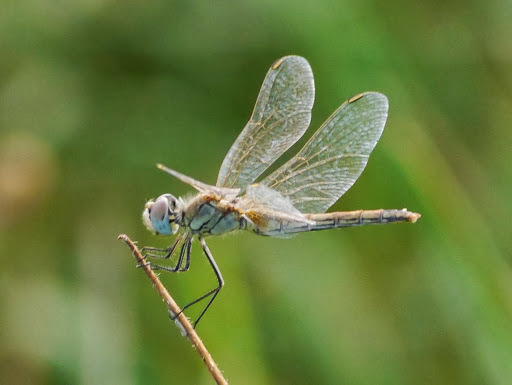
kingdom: Animalia
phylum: Arthropoda
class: Insecta
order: Odonata
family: Libellulidae
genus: Sympetrum
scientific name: Sympetrum fonscolombii
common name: Red-veined darter
